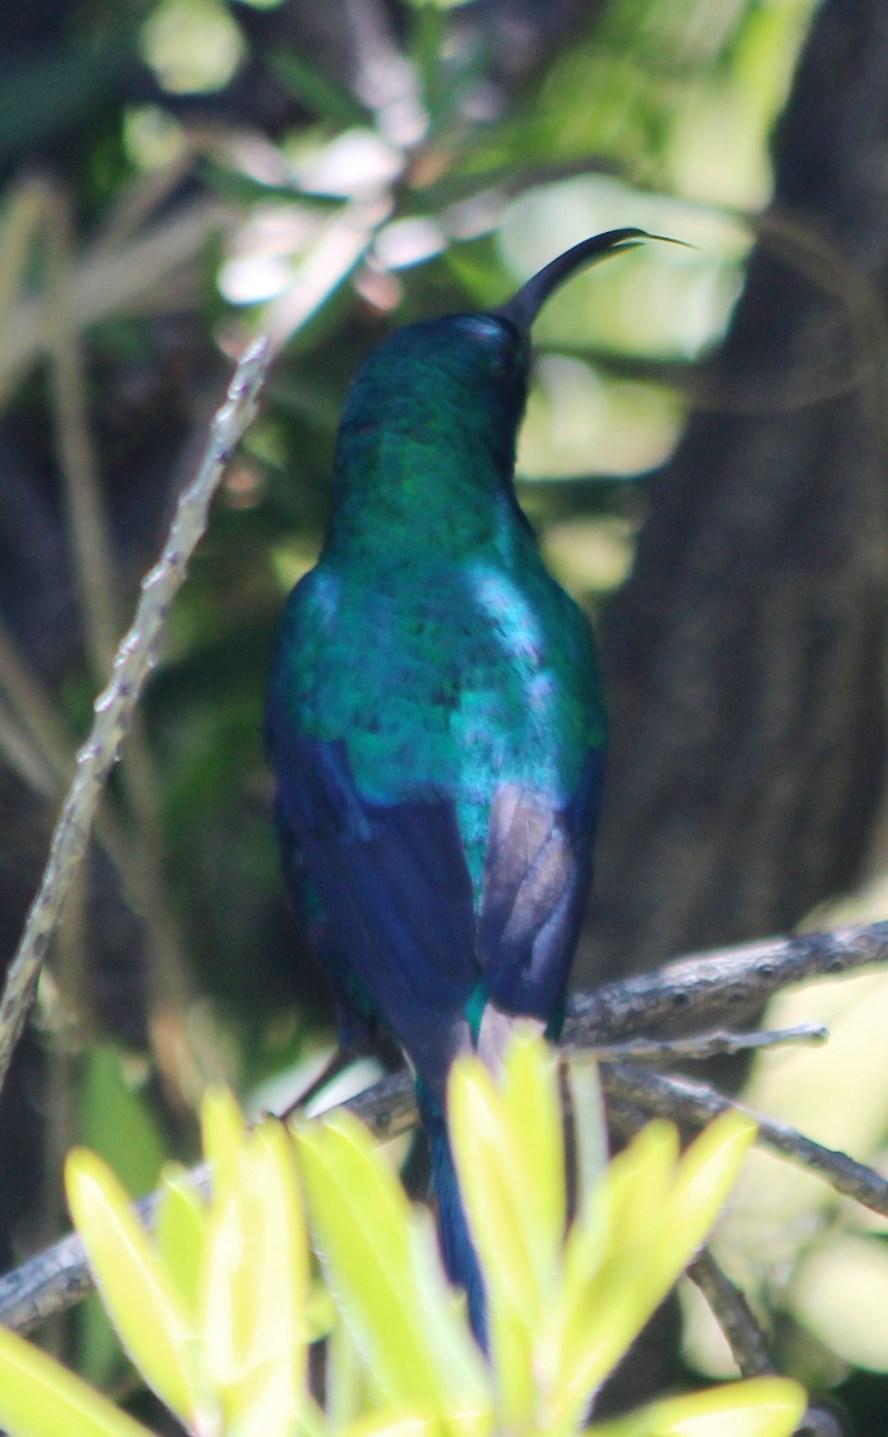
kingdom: Animalia
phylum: Chordata
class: Aves
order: Passeriformes
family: Nectariniidae
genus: Nectarinia
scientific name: Nectarinia famosa
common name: Malachite sunbird
